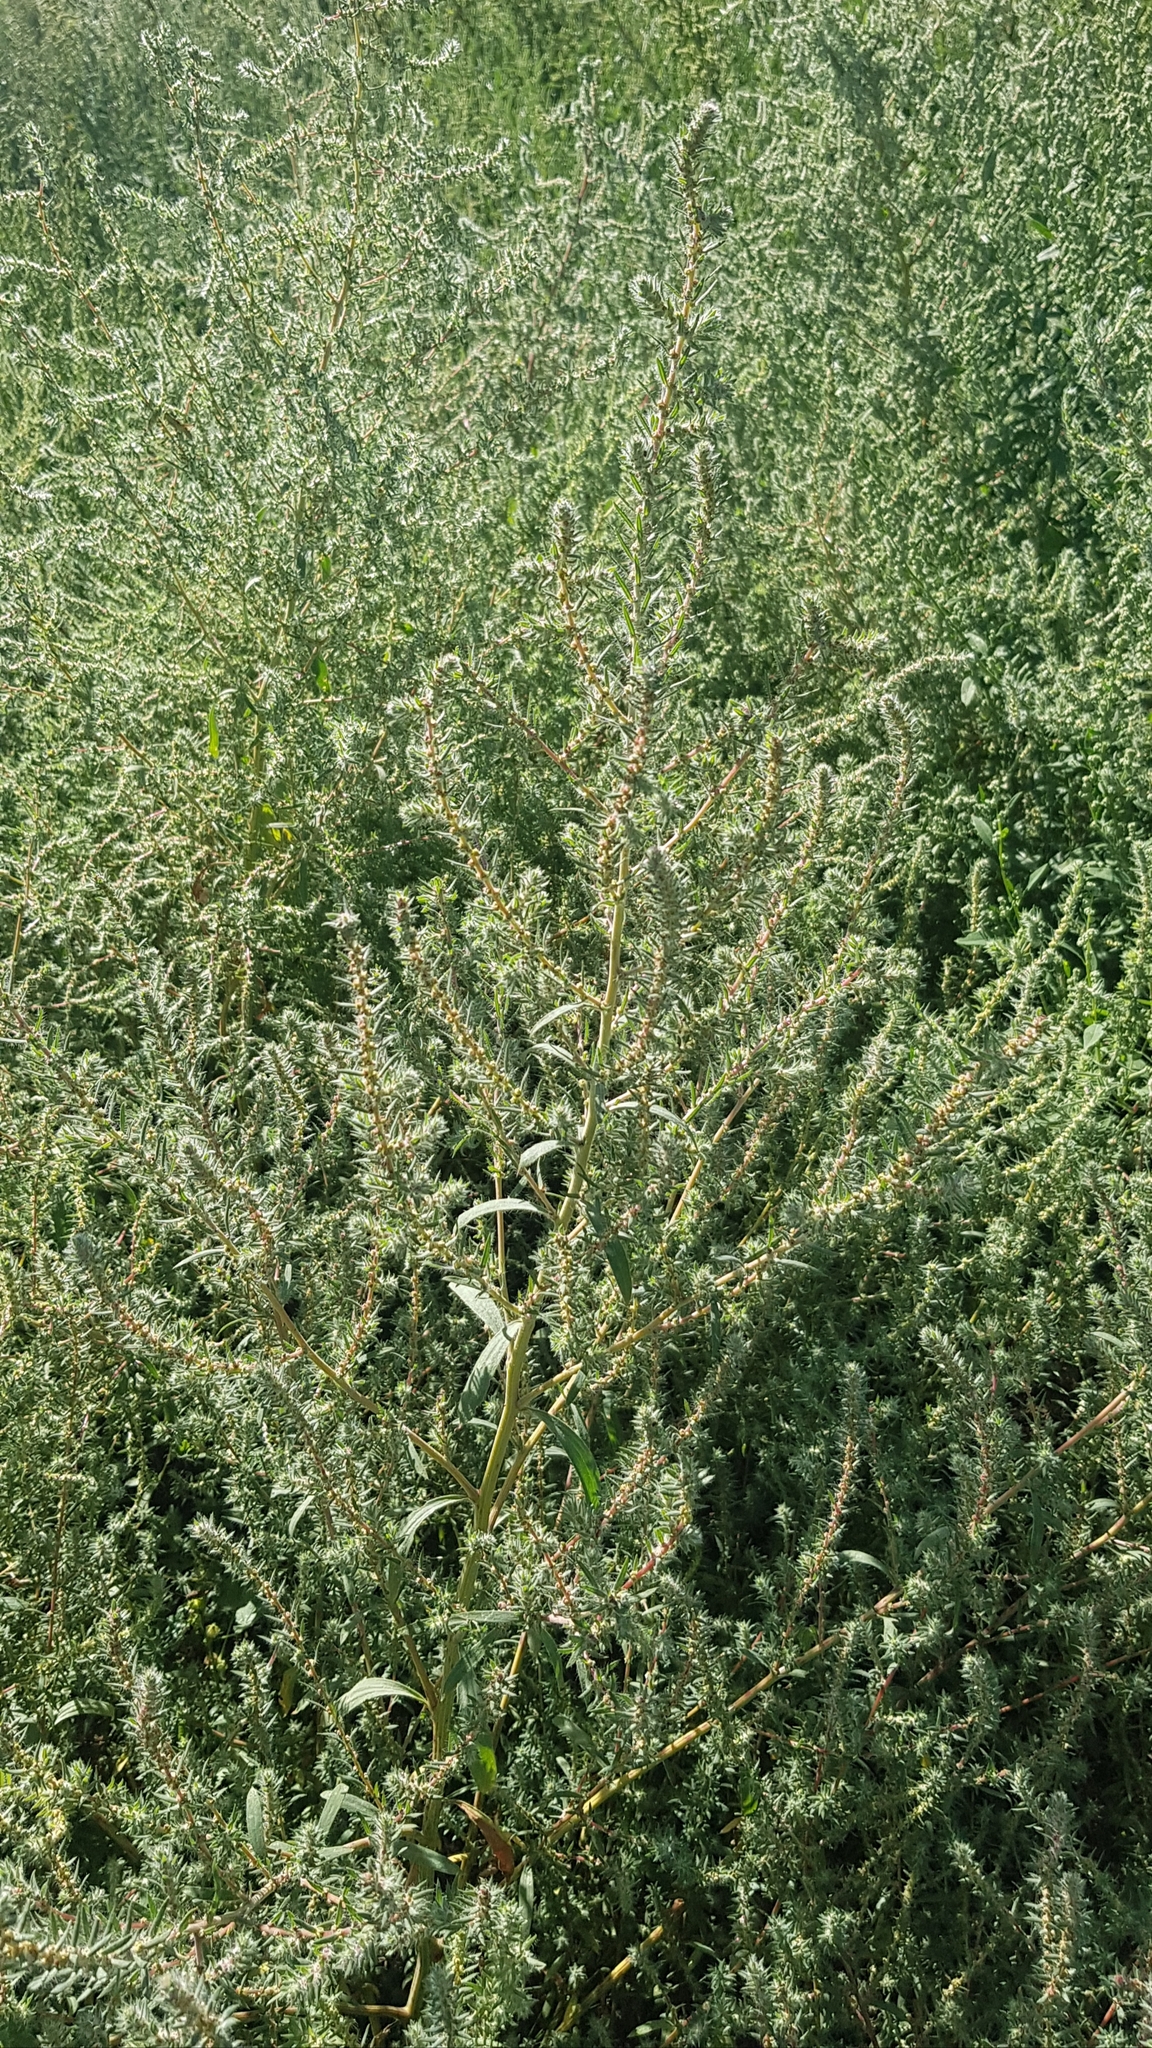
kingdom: Plantae
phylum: Tracheophyta
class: Magnoliopsida
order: Caryophyllales
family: Amaranthaceae
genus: Bassia
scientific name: Bassia scoparia
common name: Belvedere
